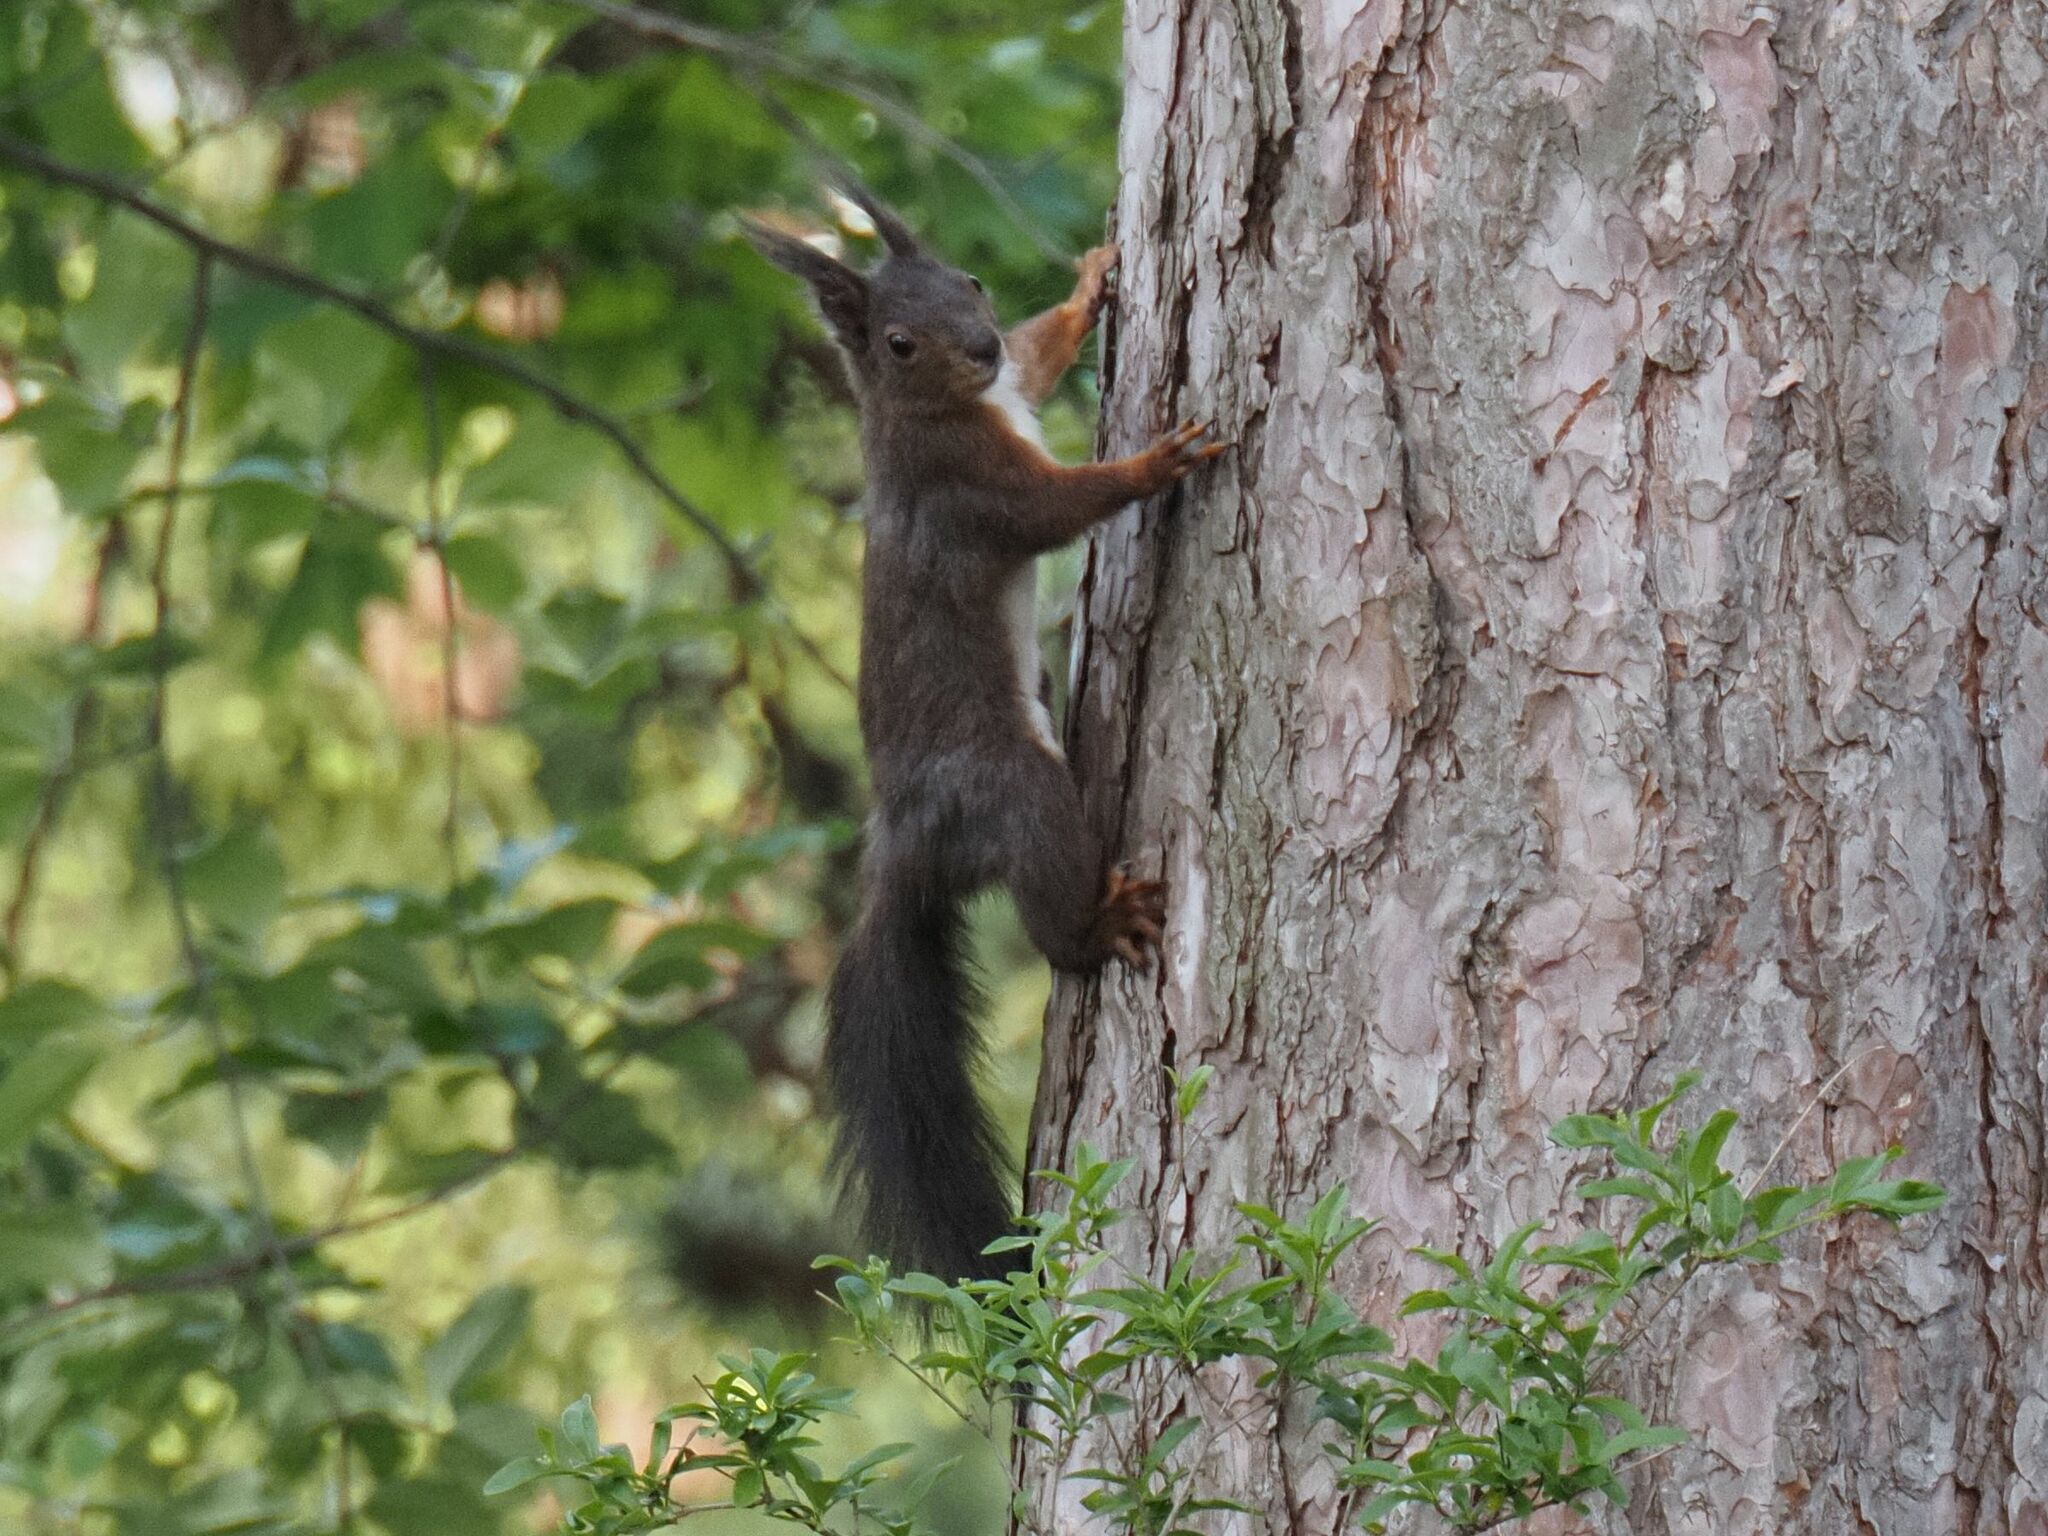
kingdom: Animalia
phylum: Chordata
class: Mammalia
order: Rodentia
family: Sciuridae
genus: Sciurus
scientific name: Sciurus vulgaris
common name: Eurasian red squirrel
